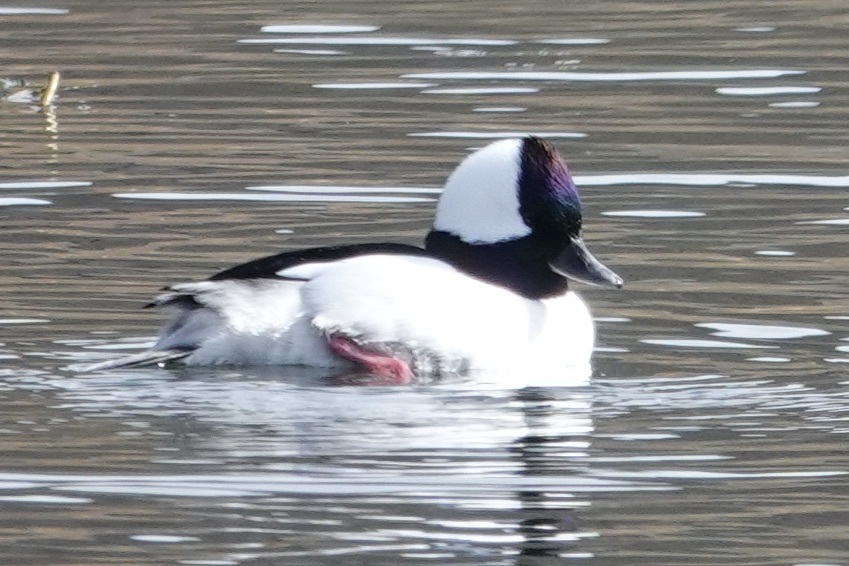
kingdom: Animalia
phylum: Chordata
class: Aves
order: Anseriformes
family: Anatidae
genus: Bucephala
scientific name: Bucephala albeola
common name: Bufflehead
